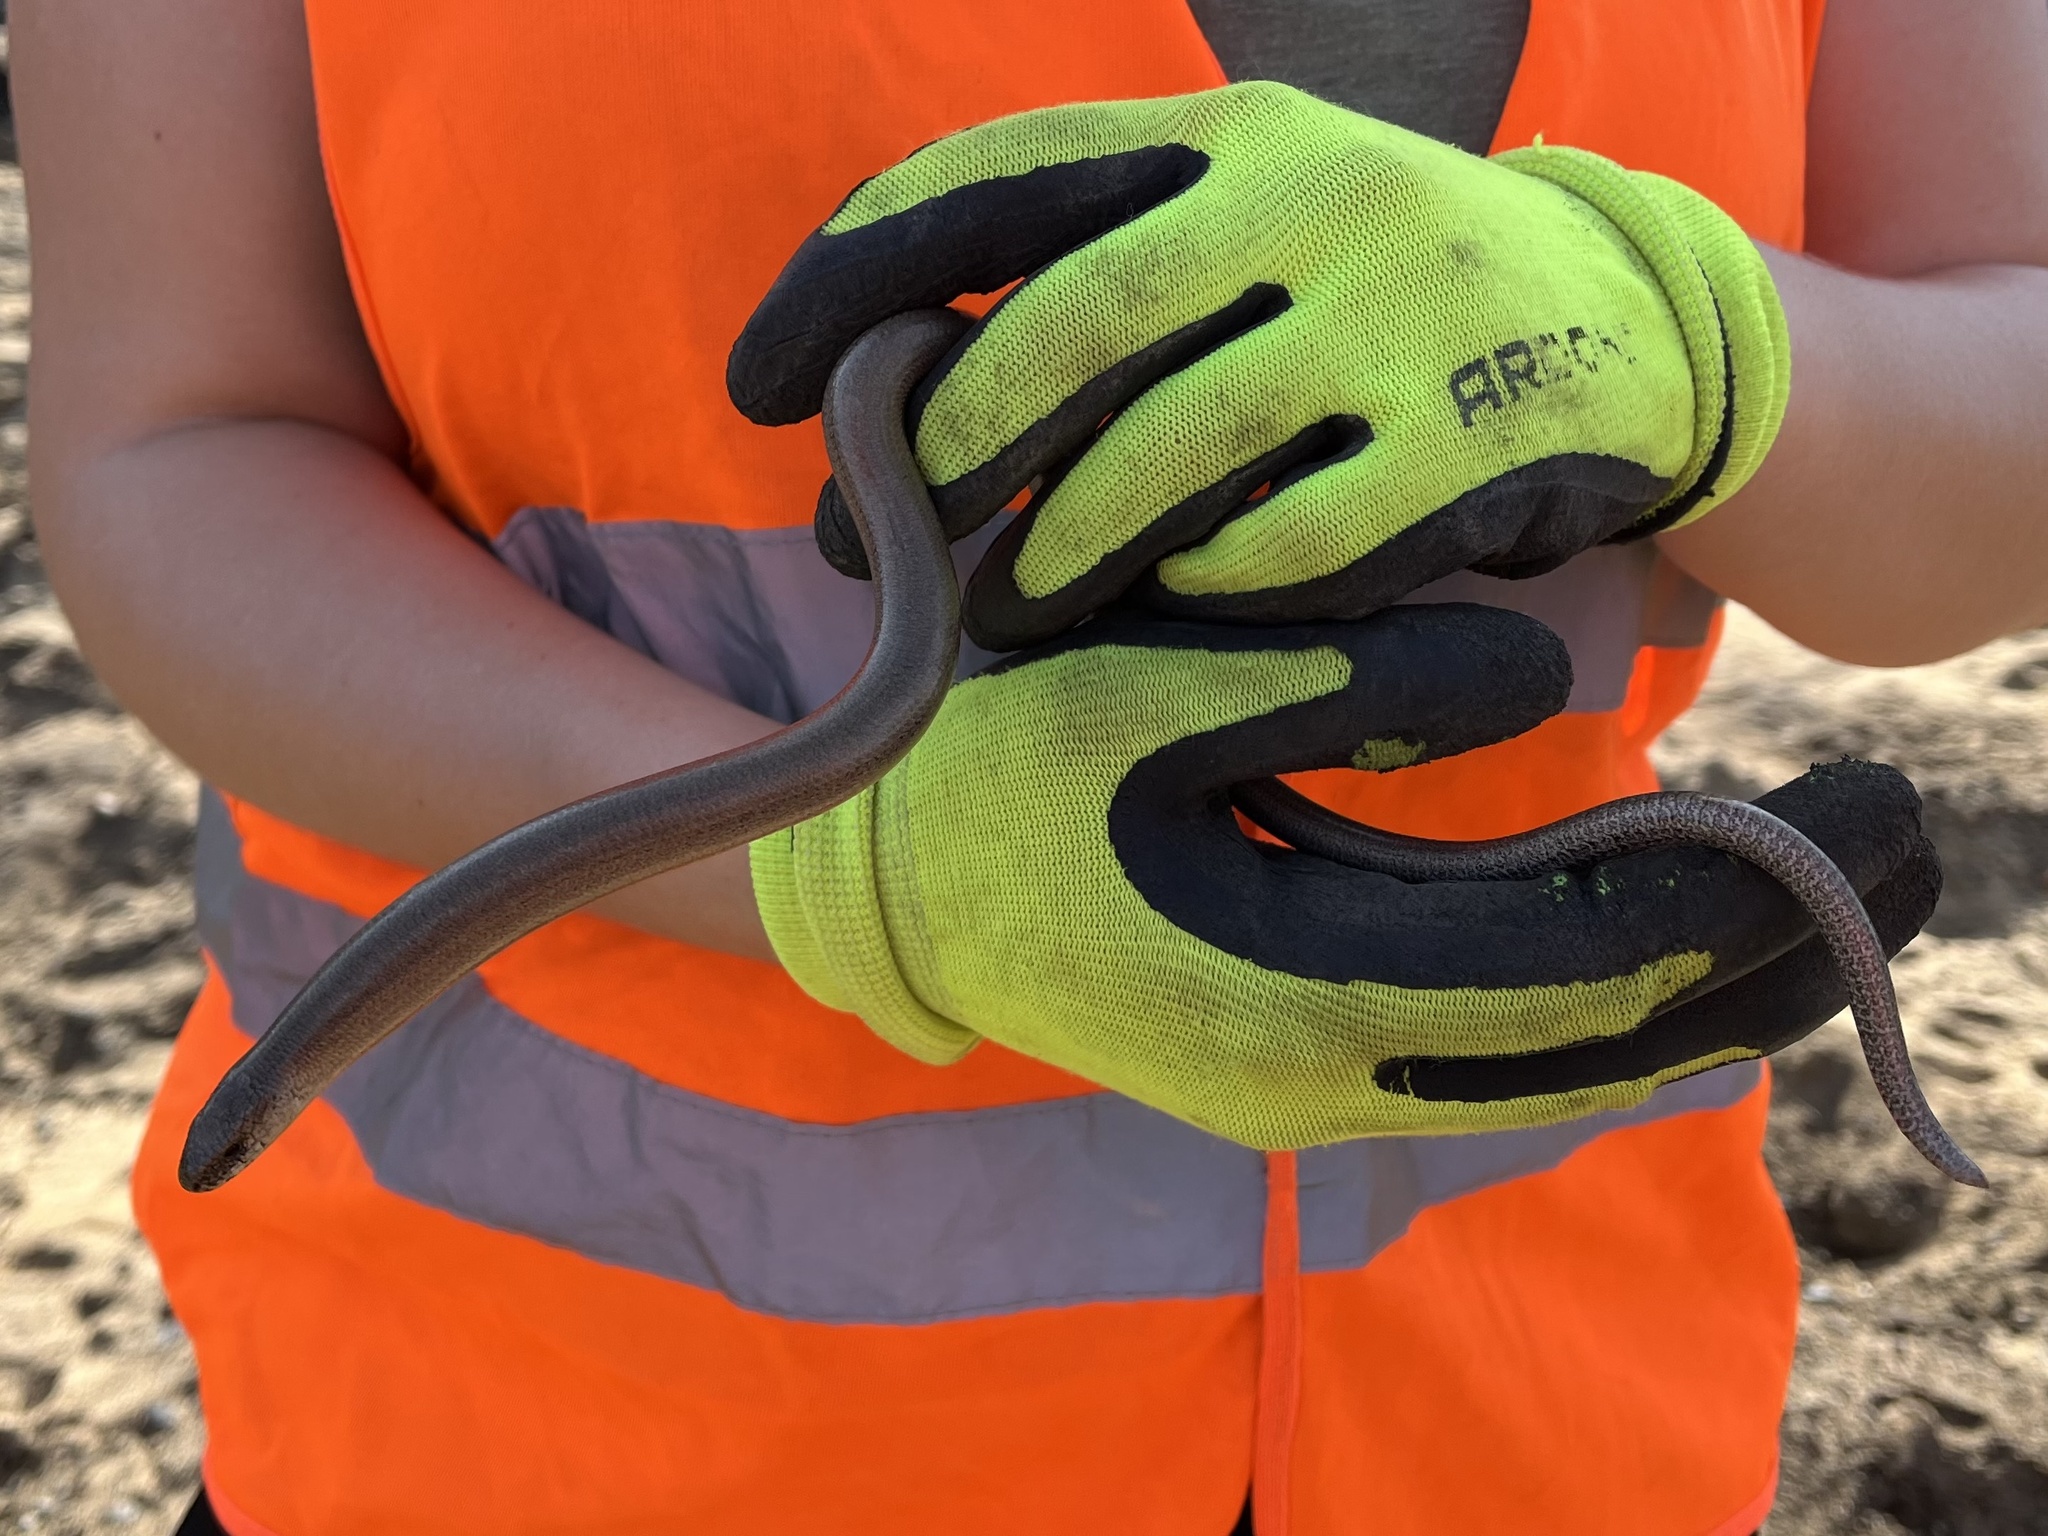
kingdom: Animalia
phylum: Chordata
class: Squamata
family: Anguidae
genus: Anguis
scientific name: Anguis fragilis
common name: Slow worm
